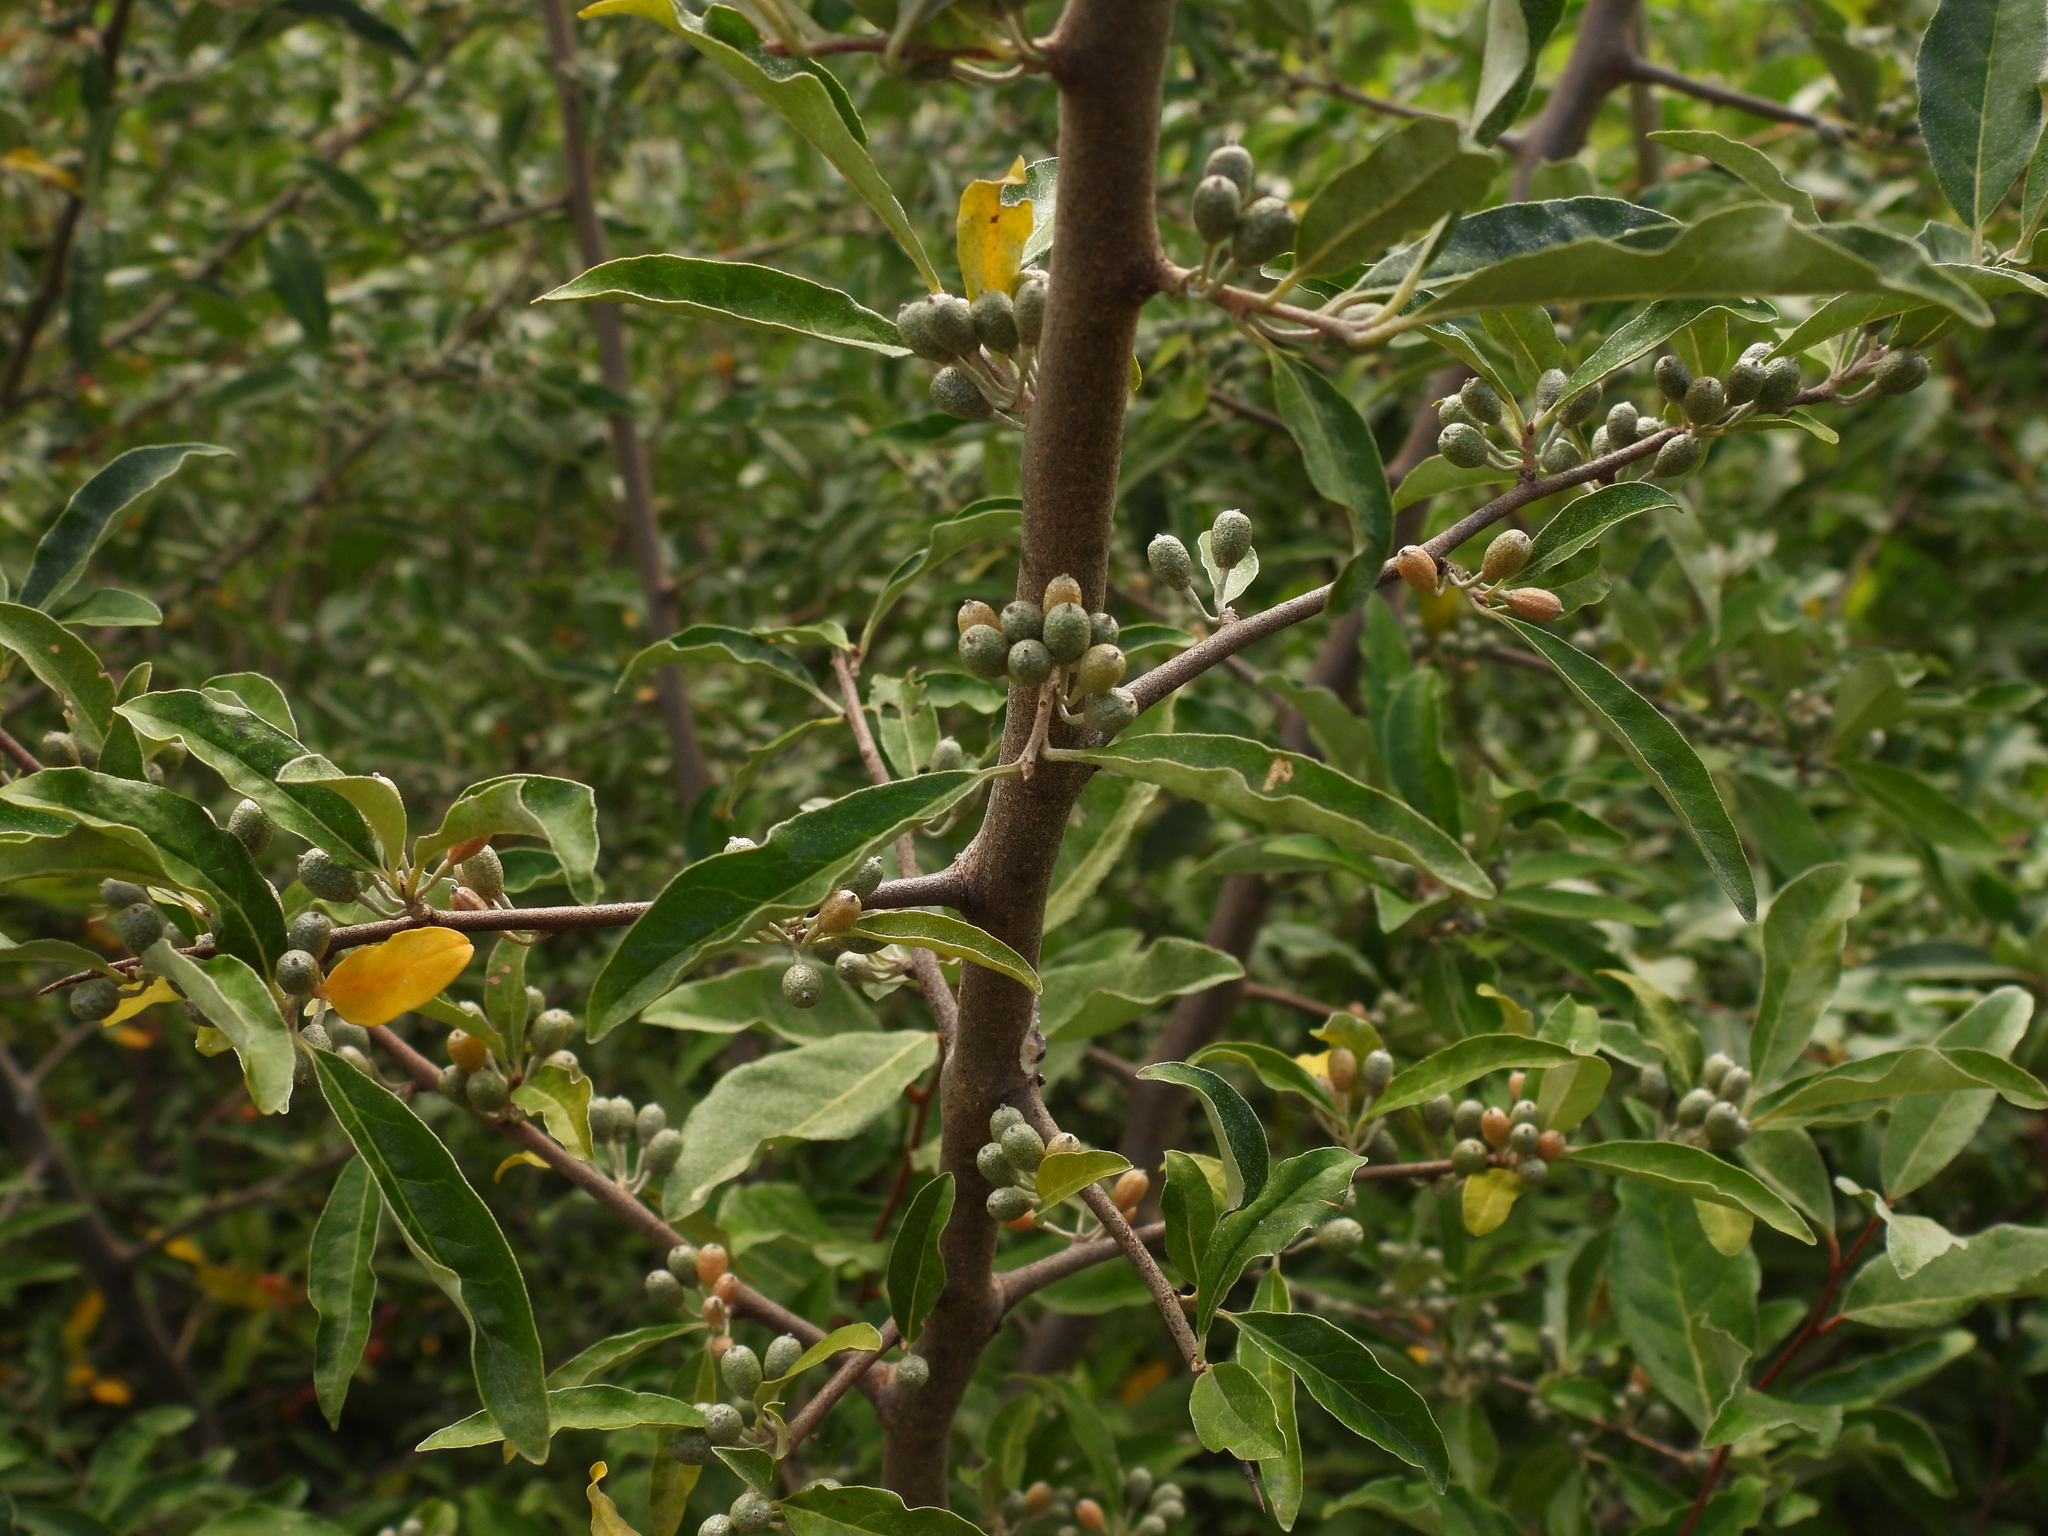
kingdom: Plantae
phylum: Tracheophyta
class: Magnoliopsida
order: Rosales
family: Elaeagnaceae
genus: Elaeagnus
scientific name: Elaeagnus umbellata
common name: Autumn olive
